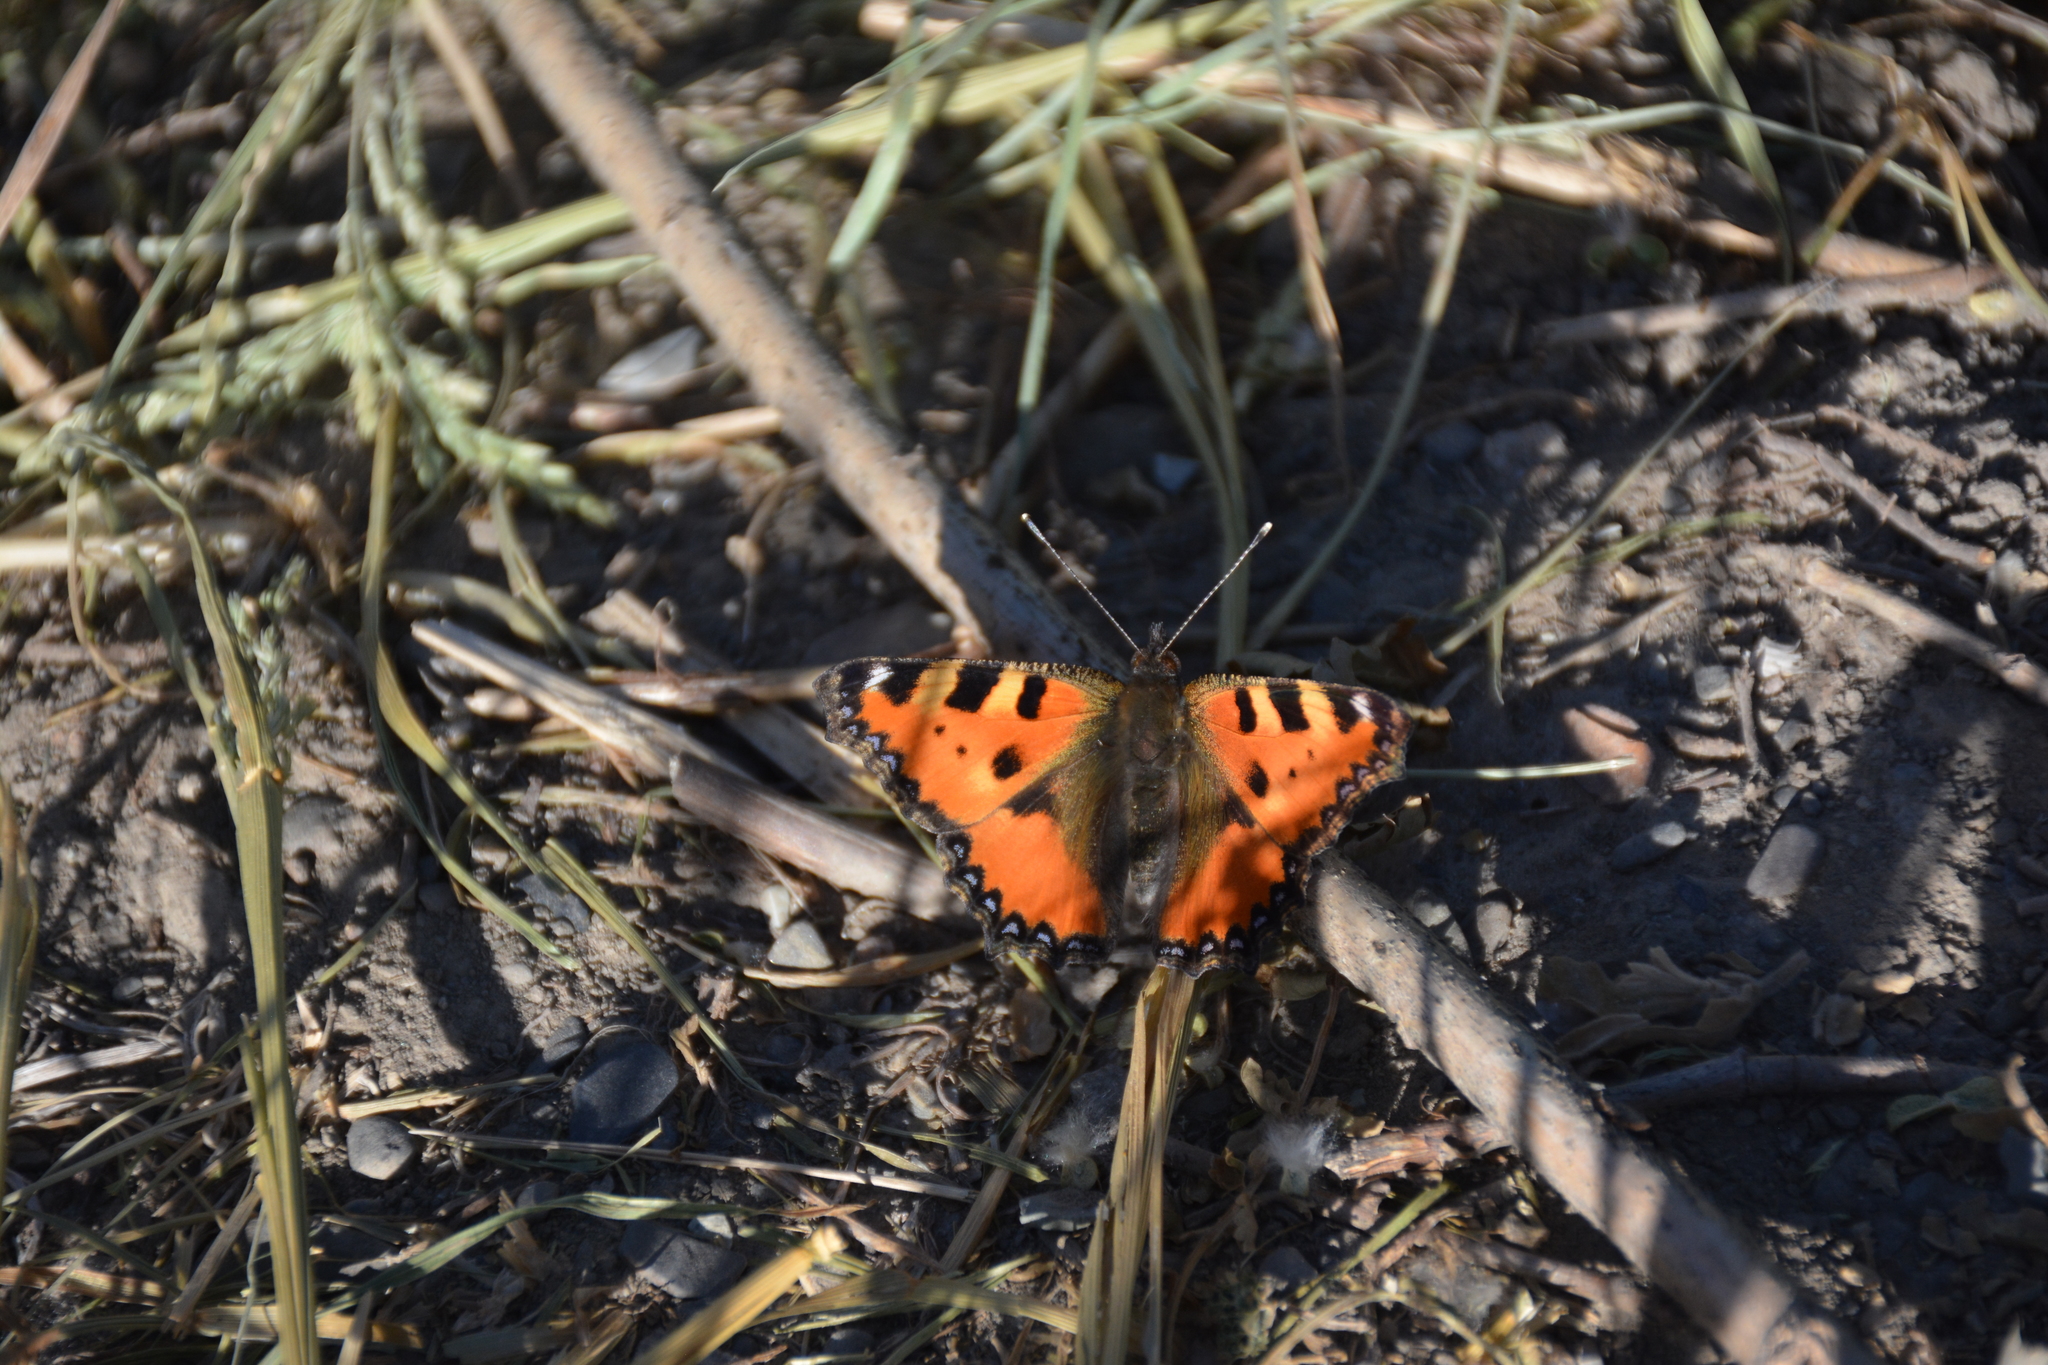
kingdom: Animalia
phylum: Arthropoda
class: Insecta
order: Lepidoptera
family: Nymphalidae
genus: Aglais
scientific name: Aglais urticae
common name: Small tortoiseshell
